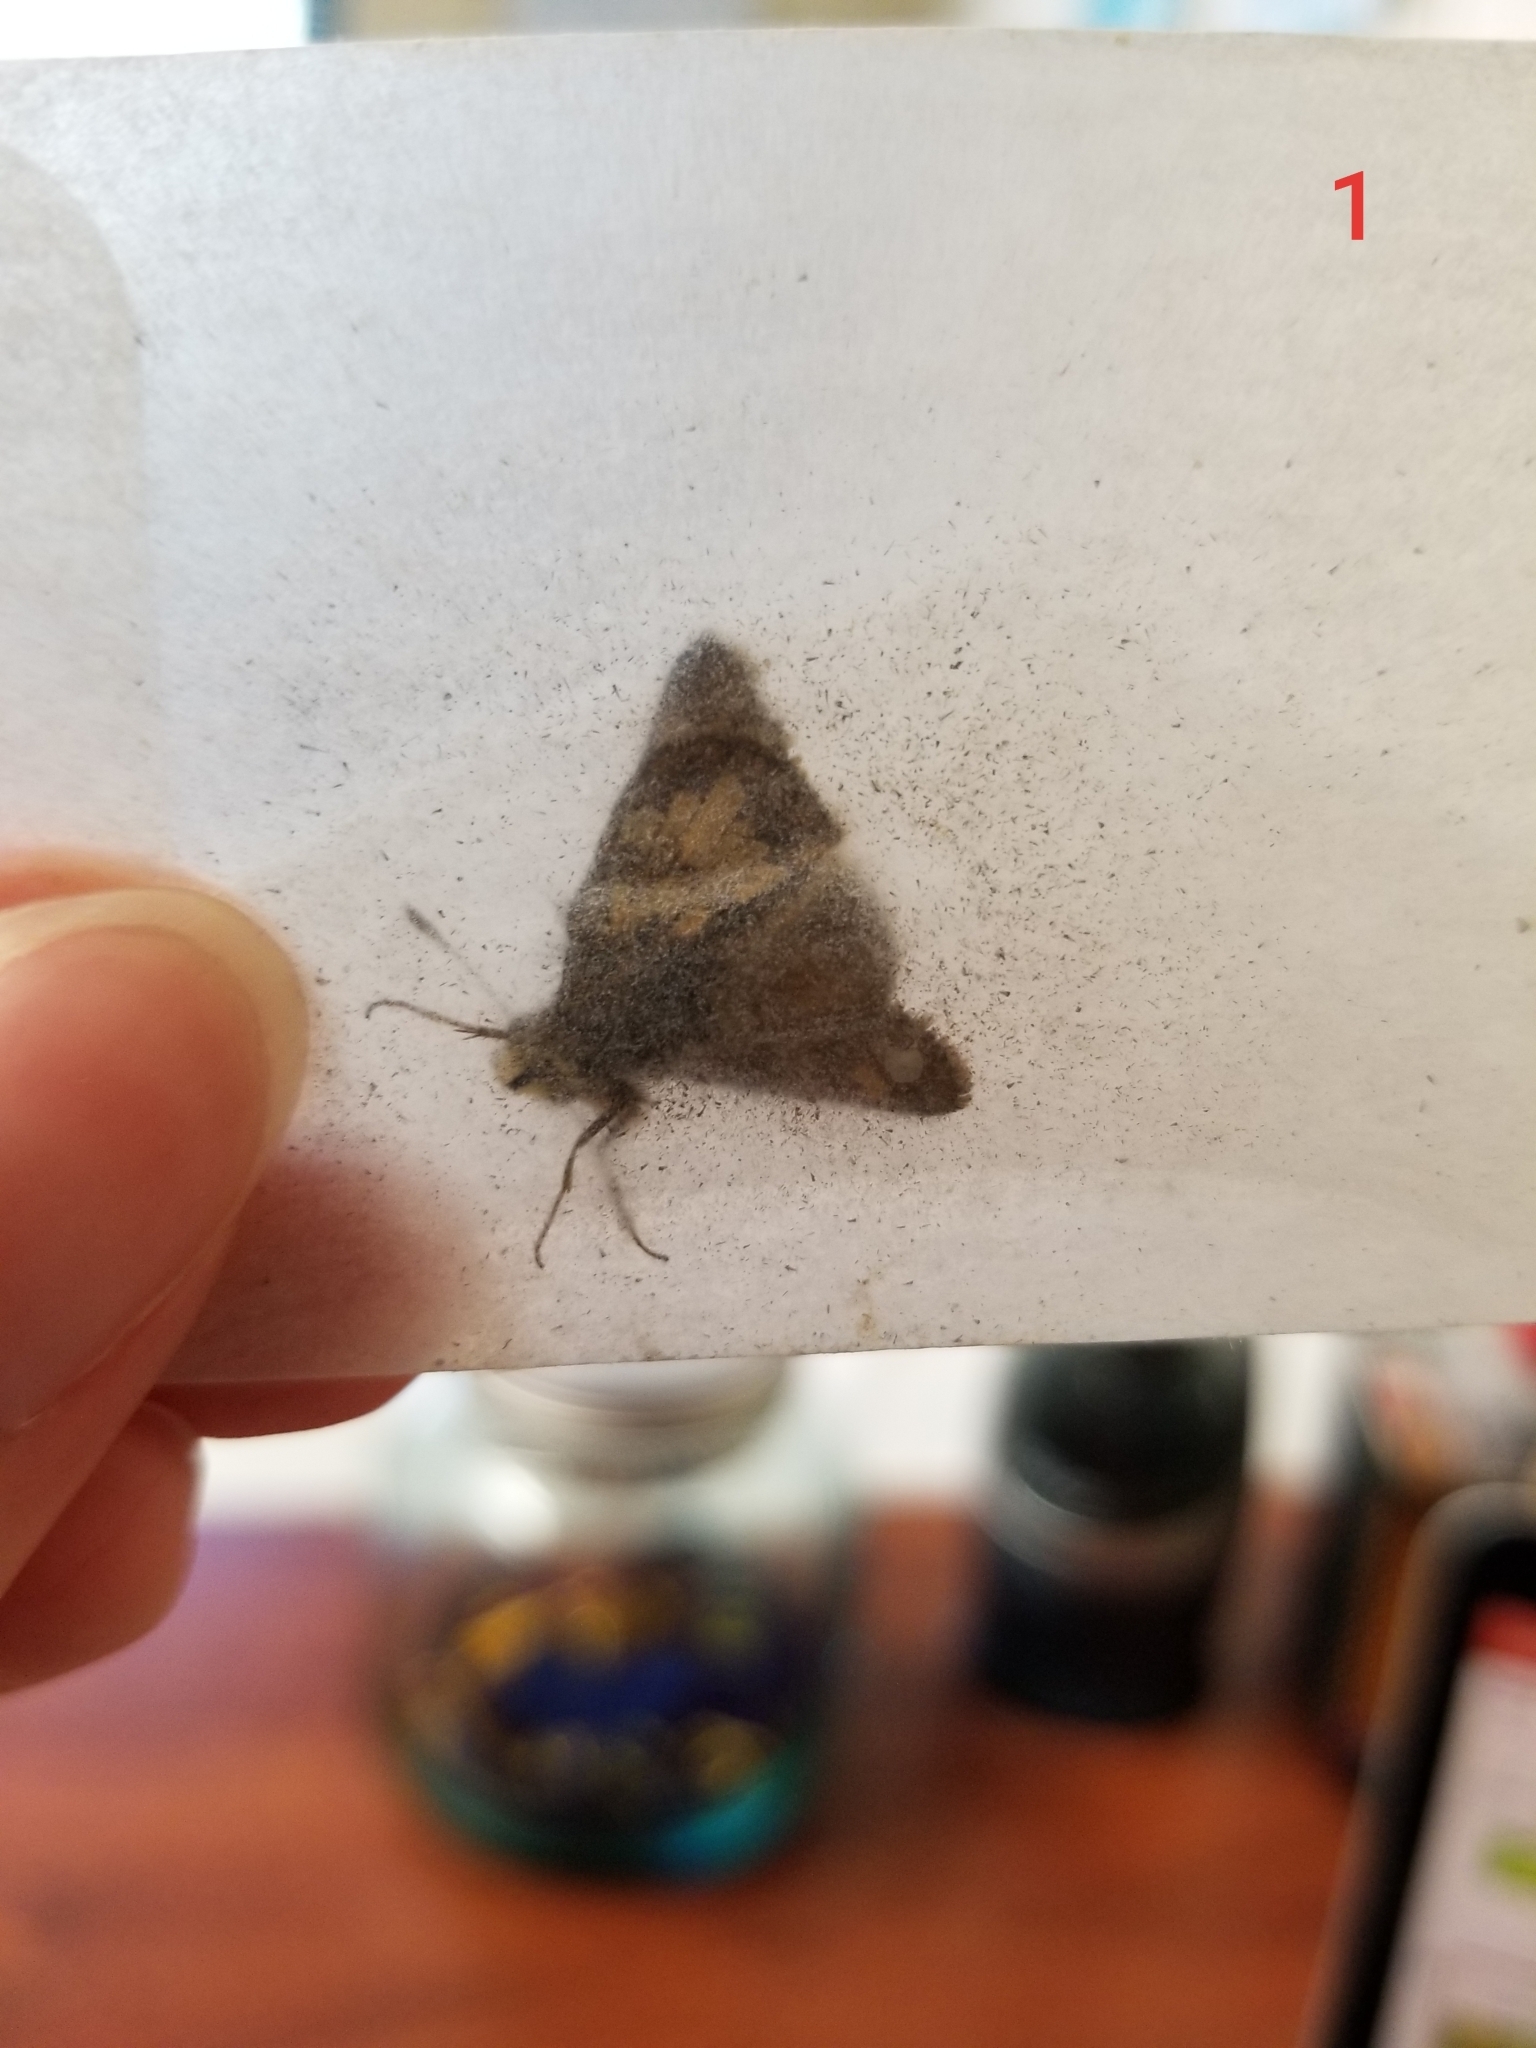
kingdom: Animalia
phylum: Arthropoda
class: Insecta
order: Lepidoptera
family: Hesperiidae
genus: Polites
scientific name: Polites coras
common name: Peck's skipper
